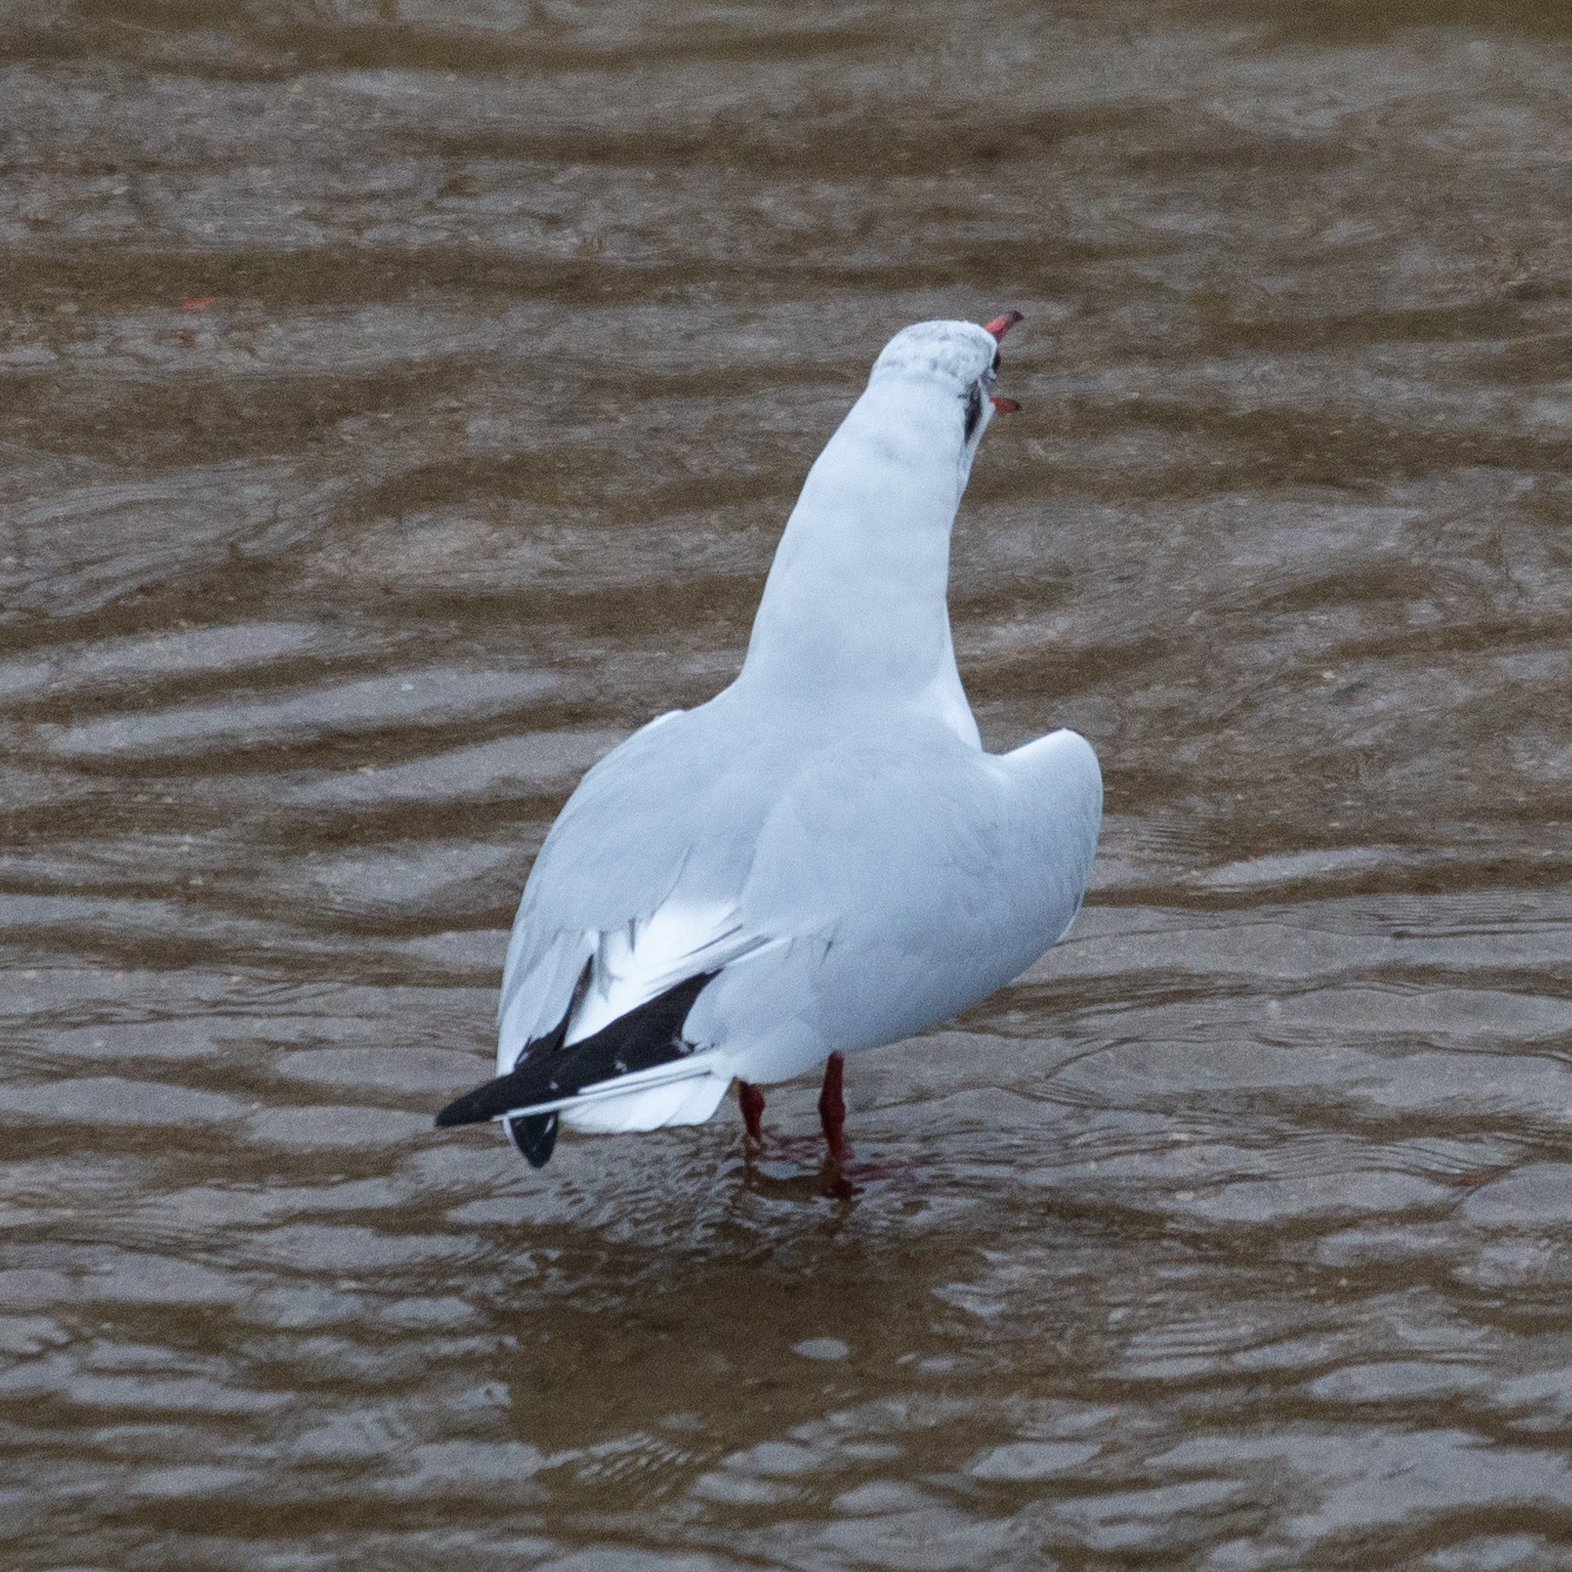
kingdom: Animalia
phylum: Chordata
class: Aves
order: Charadriiformes
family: Laridae
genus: Chroicocephalus
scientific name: Chroicocephalus ridibundus
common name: Black-headed gull
